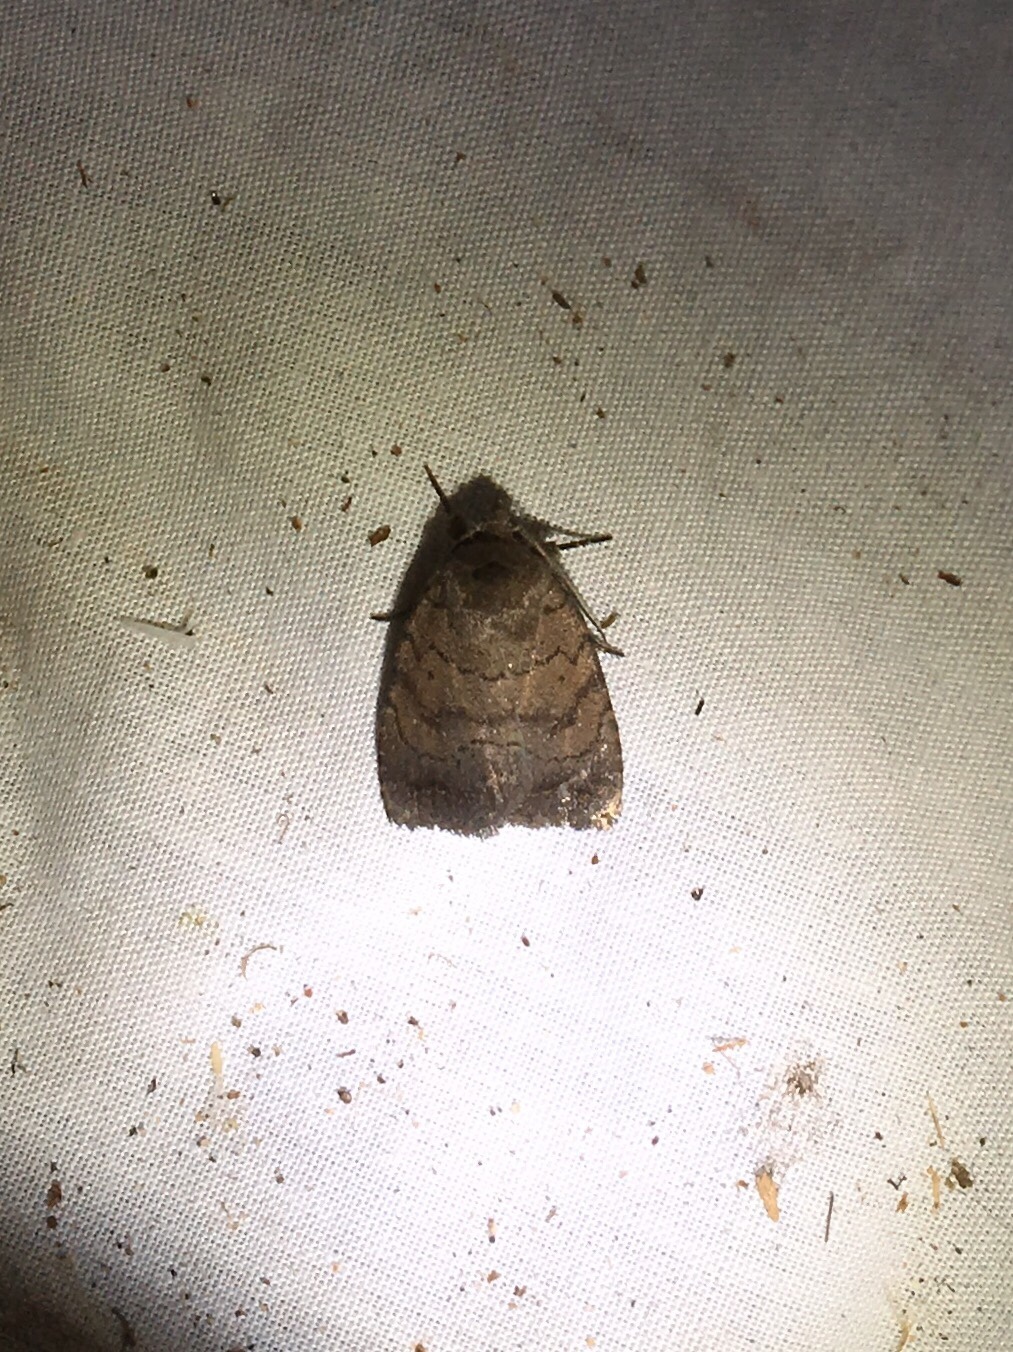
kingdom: Animalia
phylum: Arthropoda
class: Insecta
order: Lepidoptera
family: Noctuidae
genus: Athetis
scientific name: Athetis tarda
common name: Slowpoke moth
